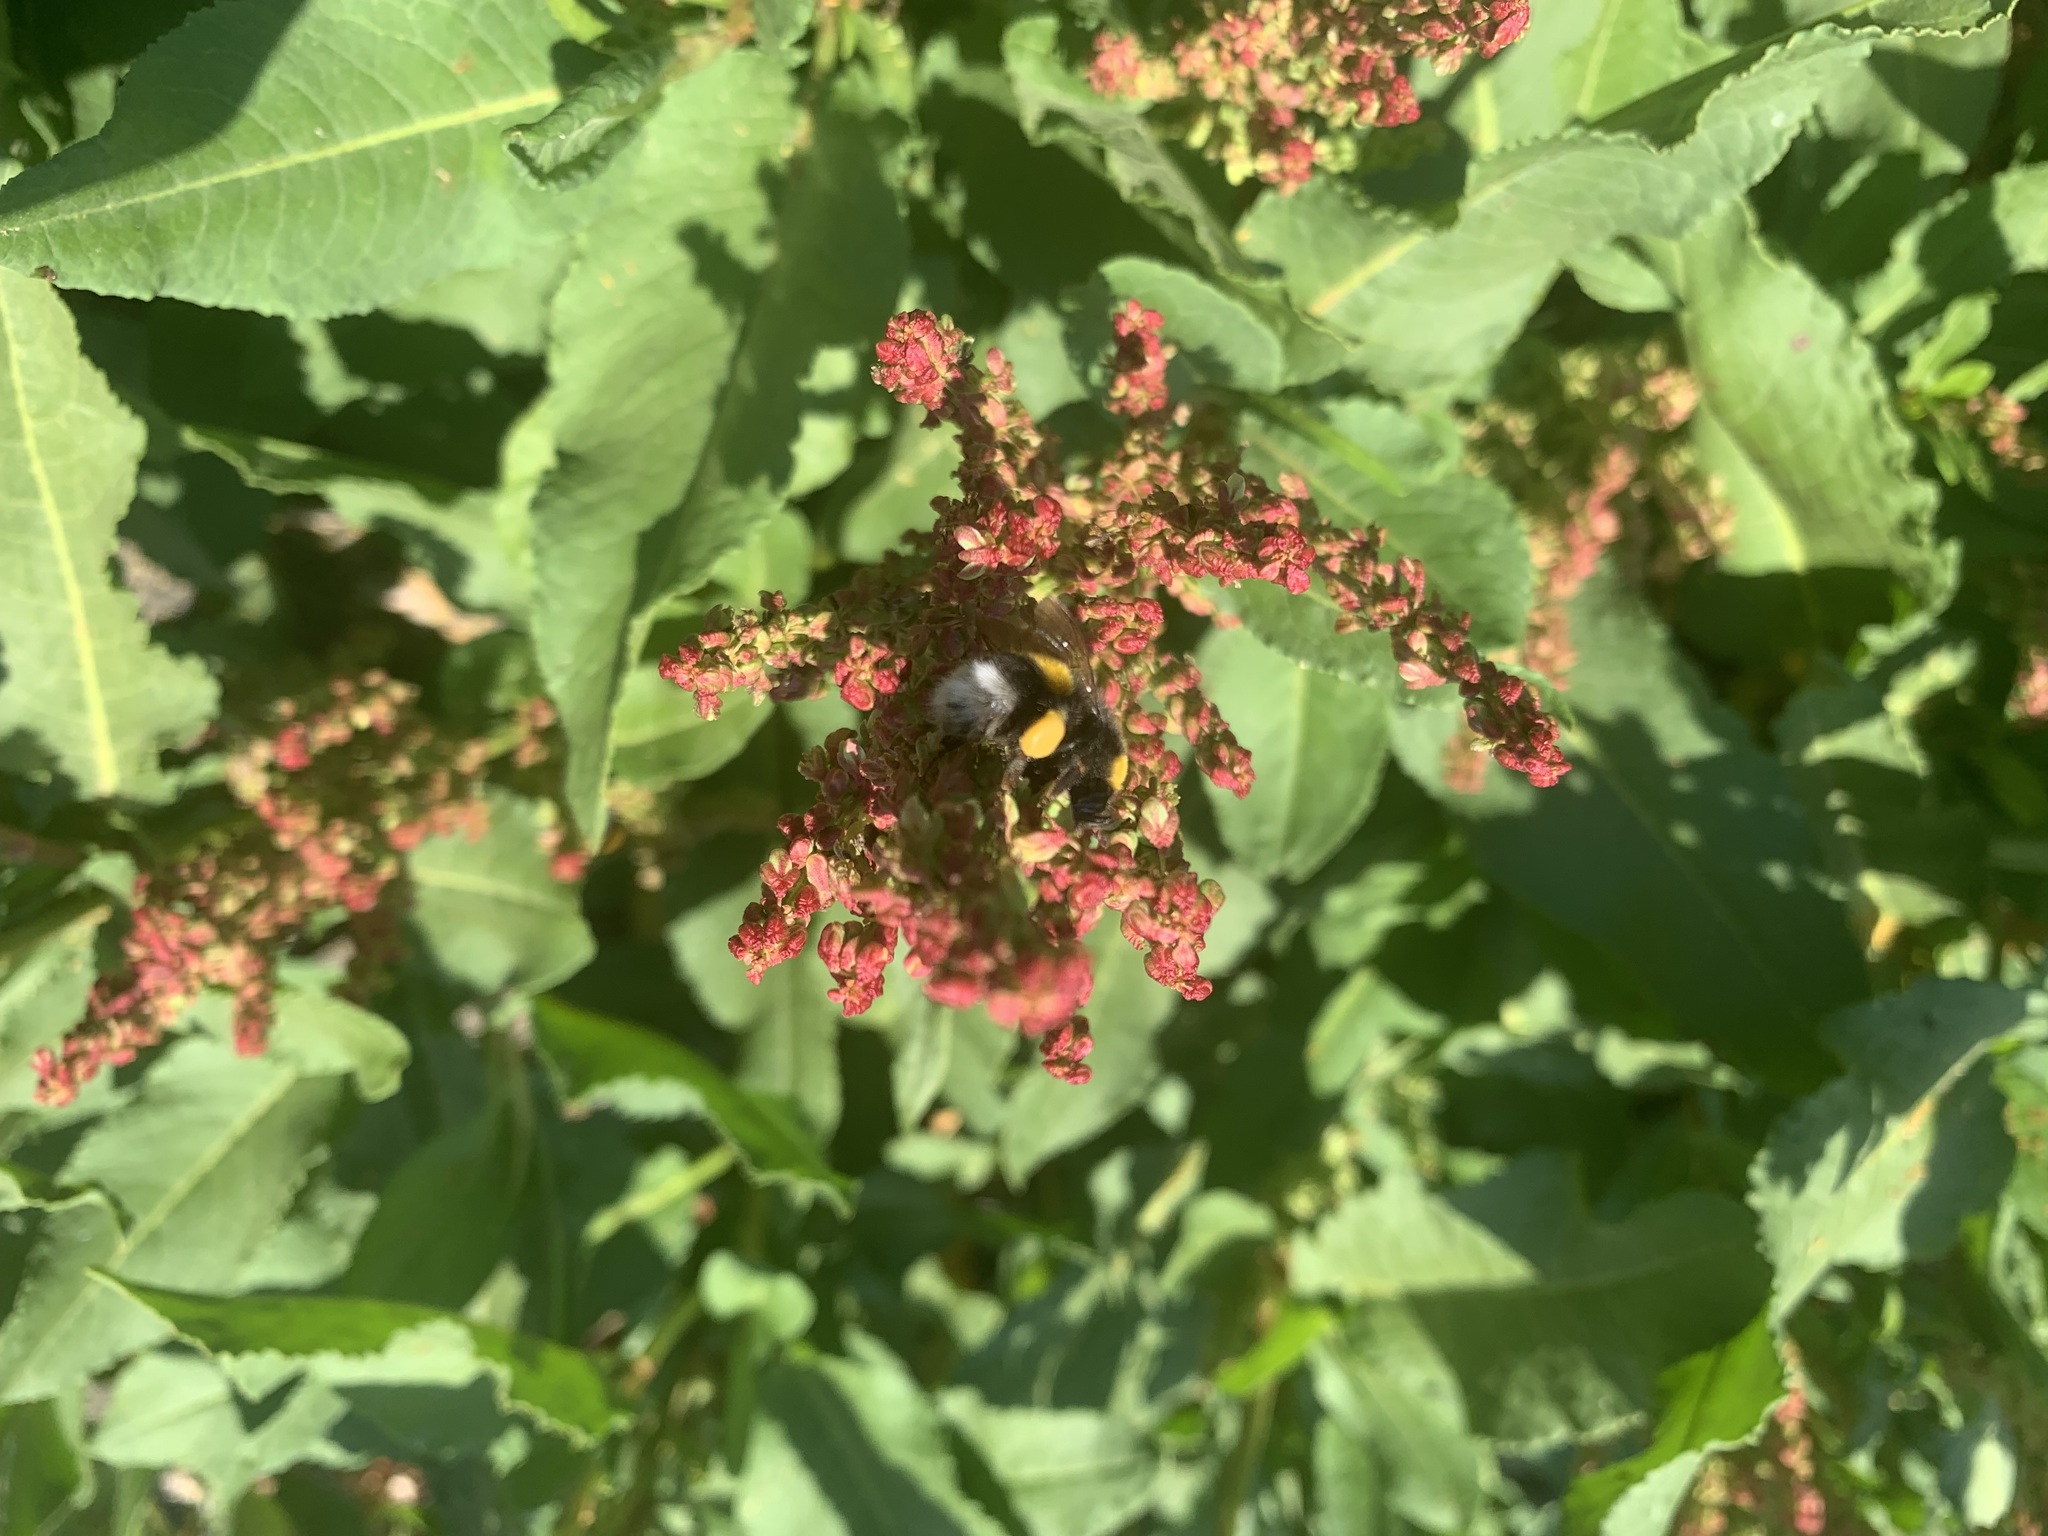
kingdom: Animalia
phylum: Arthropoda
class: Insecta
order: Hymenoptera
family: Apidae
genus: Bombus
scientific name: Bombus terrestris
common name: Buff-tailed bumblebee
